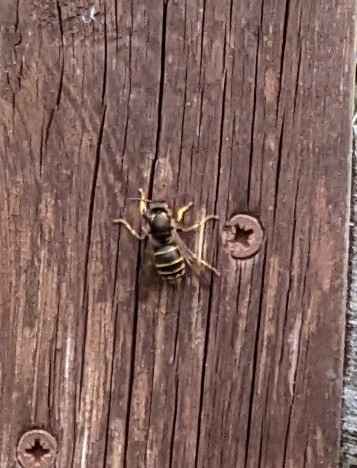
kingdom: Animalia
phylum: Arthropoda
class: Insecta
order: Hymenoptera
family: Vespidae
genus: Dolichovespula
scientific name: Dolichovespula media
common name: Median wasp
